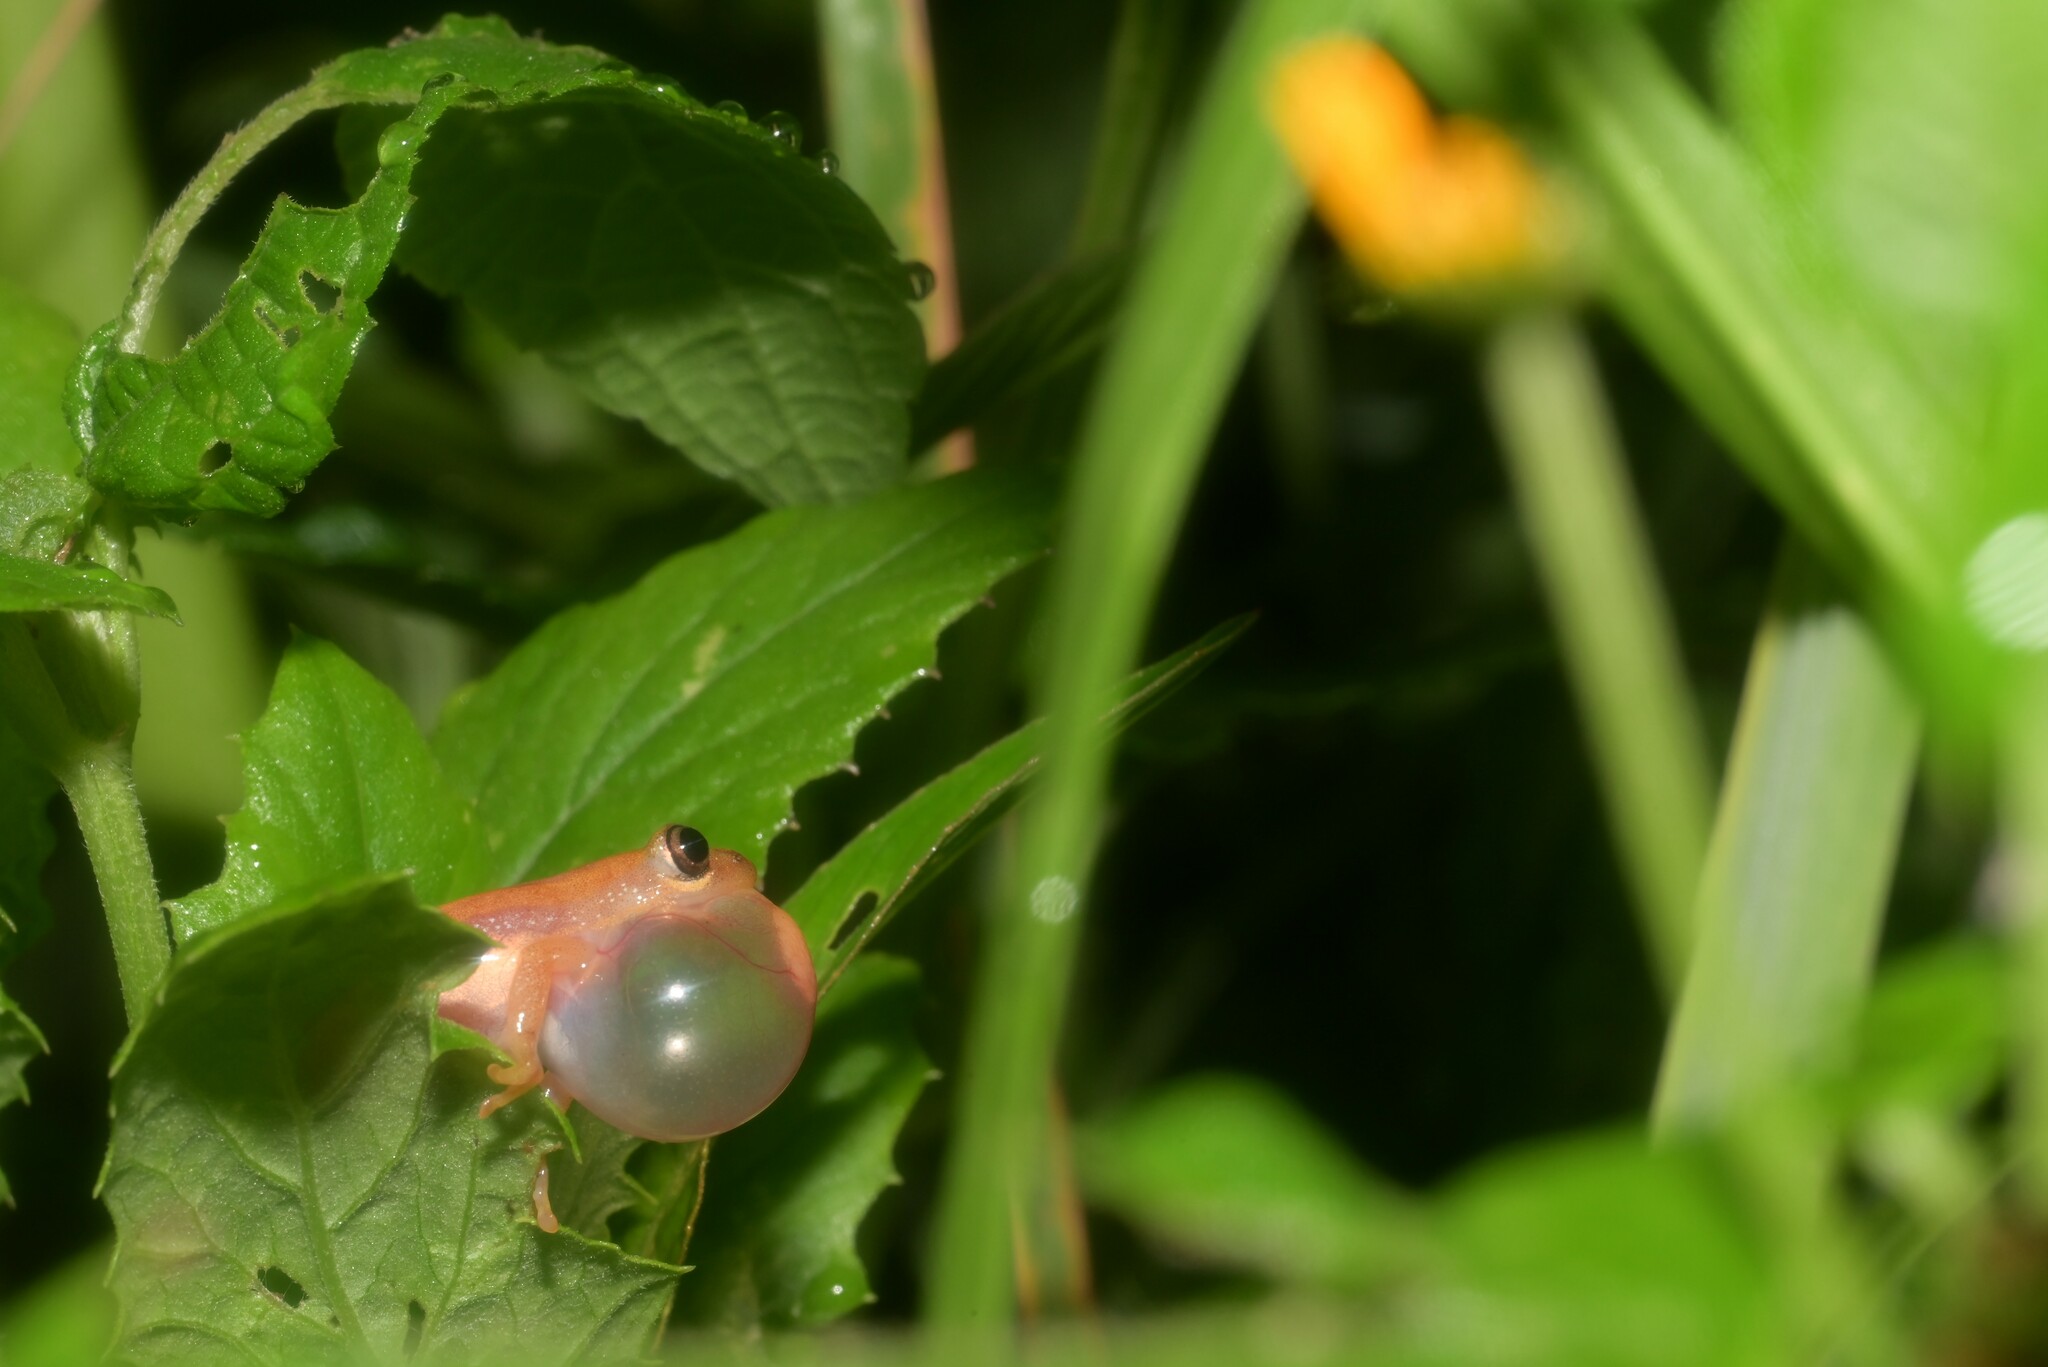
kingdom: Animalia
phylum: Chordata
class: Amphibia
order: Anura
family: Hyperoliidae
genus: Afrixalus
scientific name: Afrixalus brachycnemis
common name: Lesser banana frog
